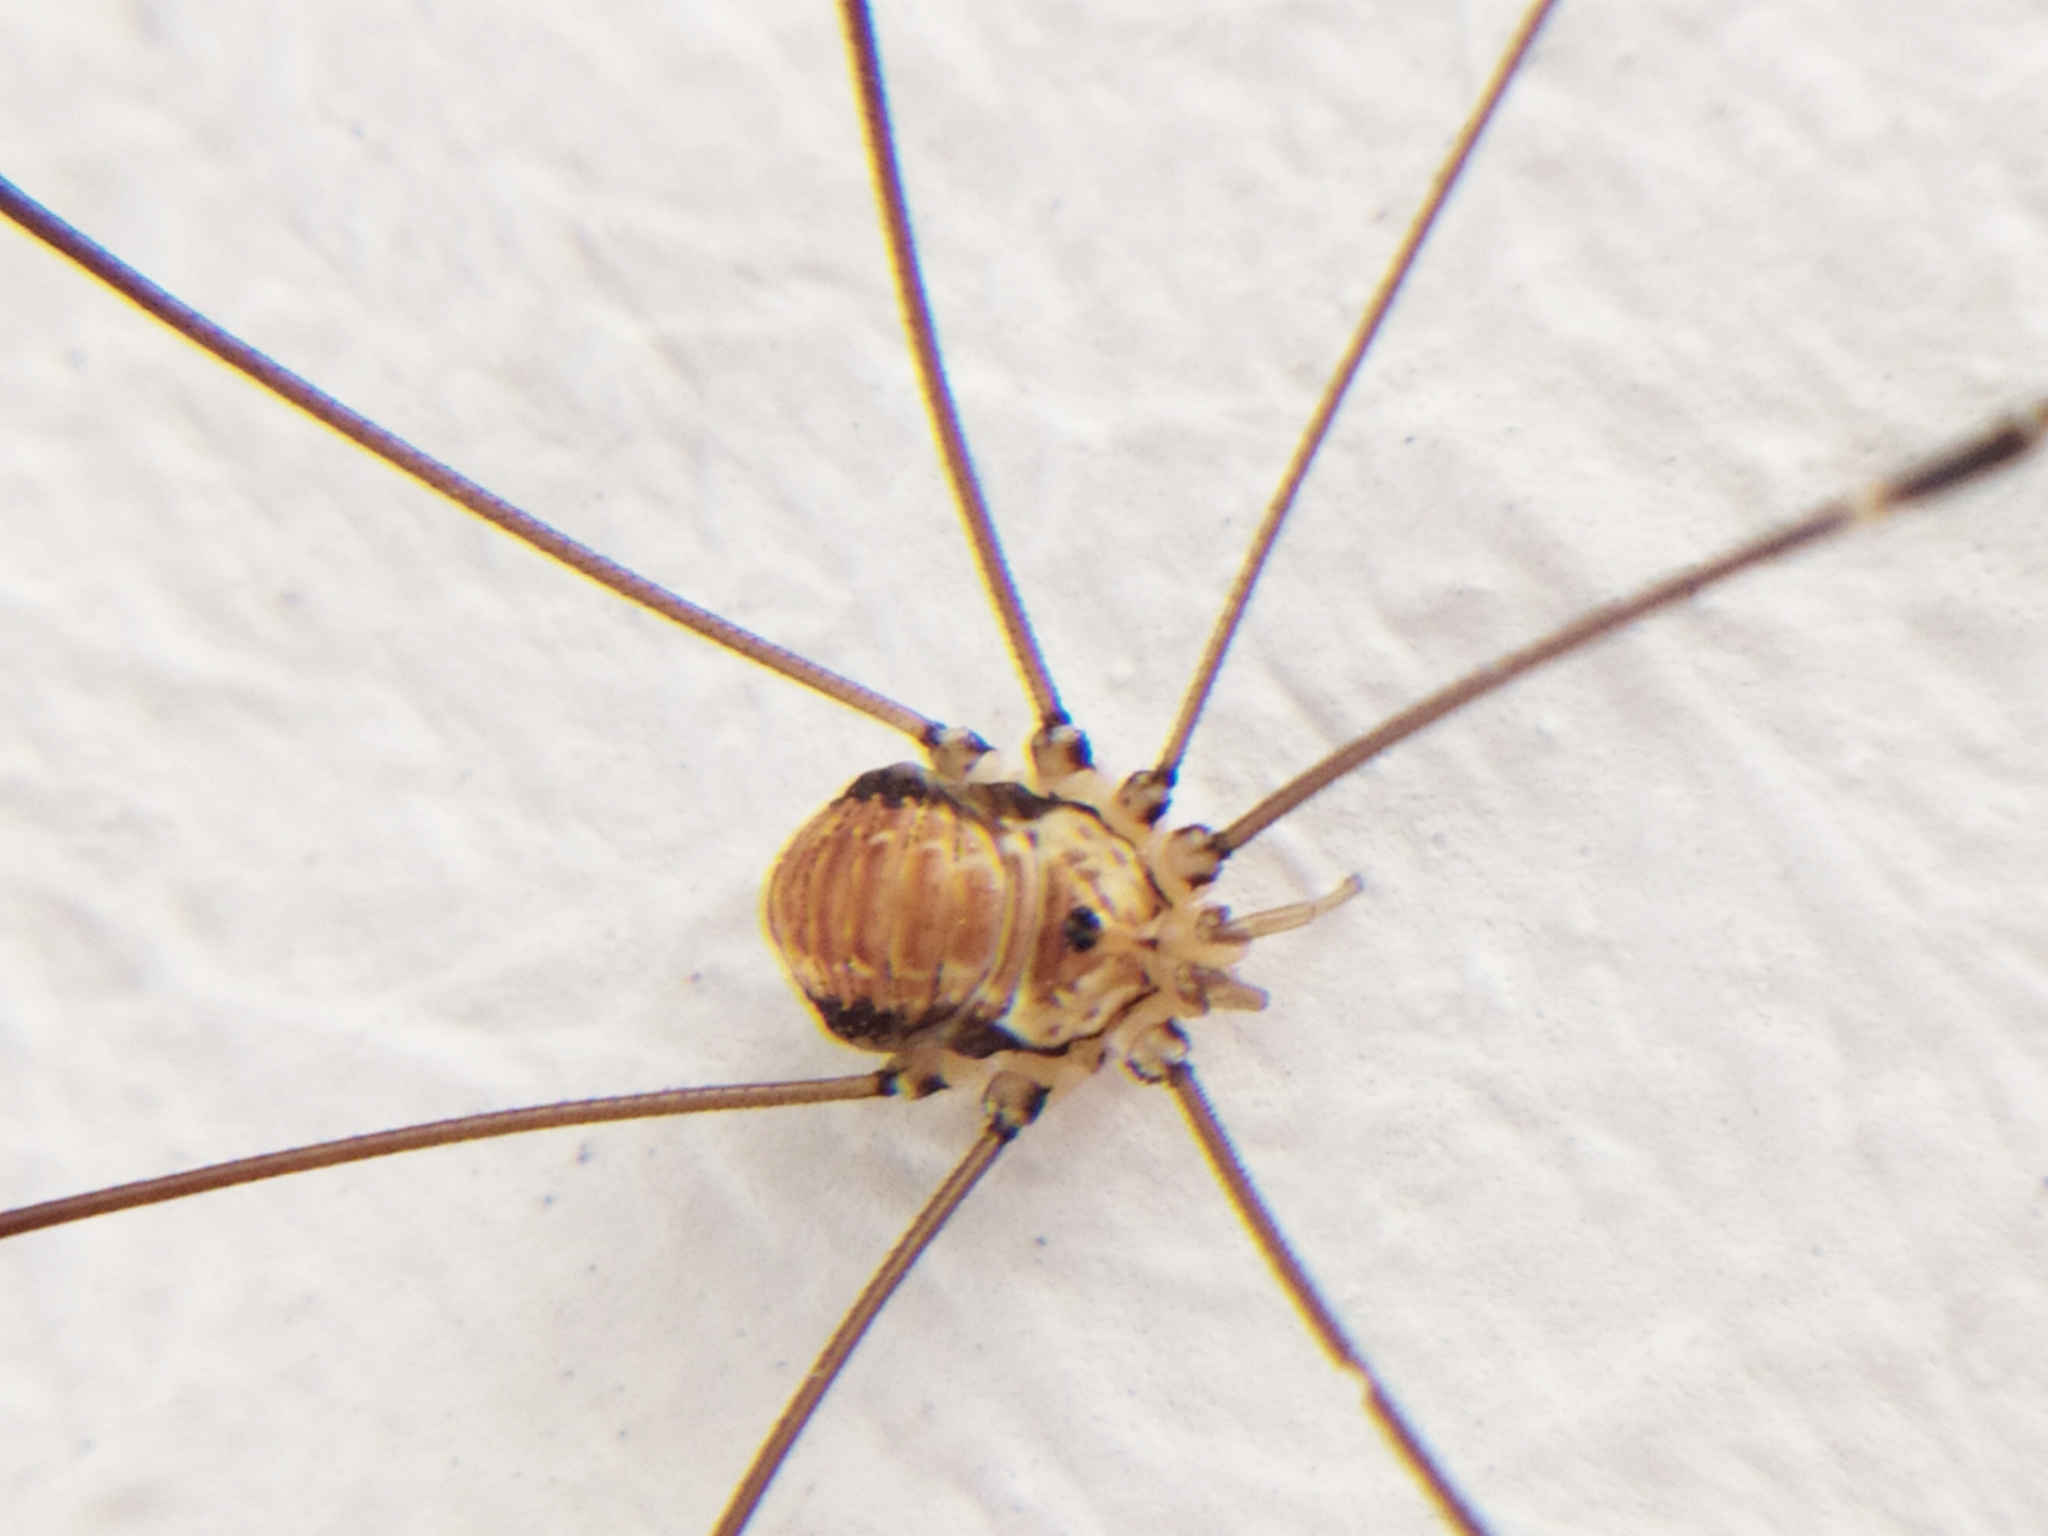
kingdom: Animalia
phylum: Arthropoda
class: Arachnida
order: Opiliones
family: Sclerosomatidae
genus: Leiobunum
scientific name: Leiobunum limbatum
